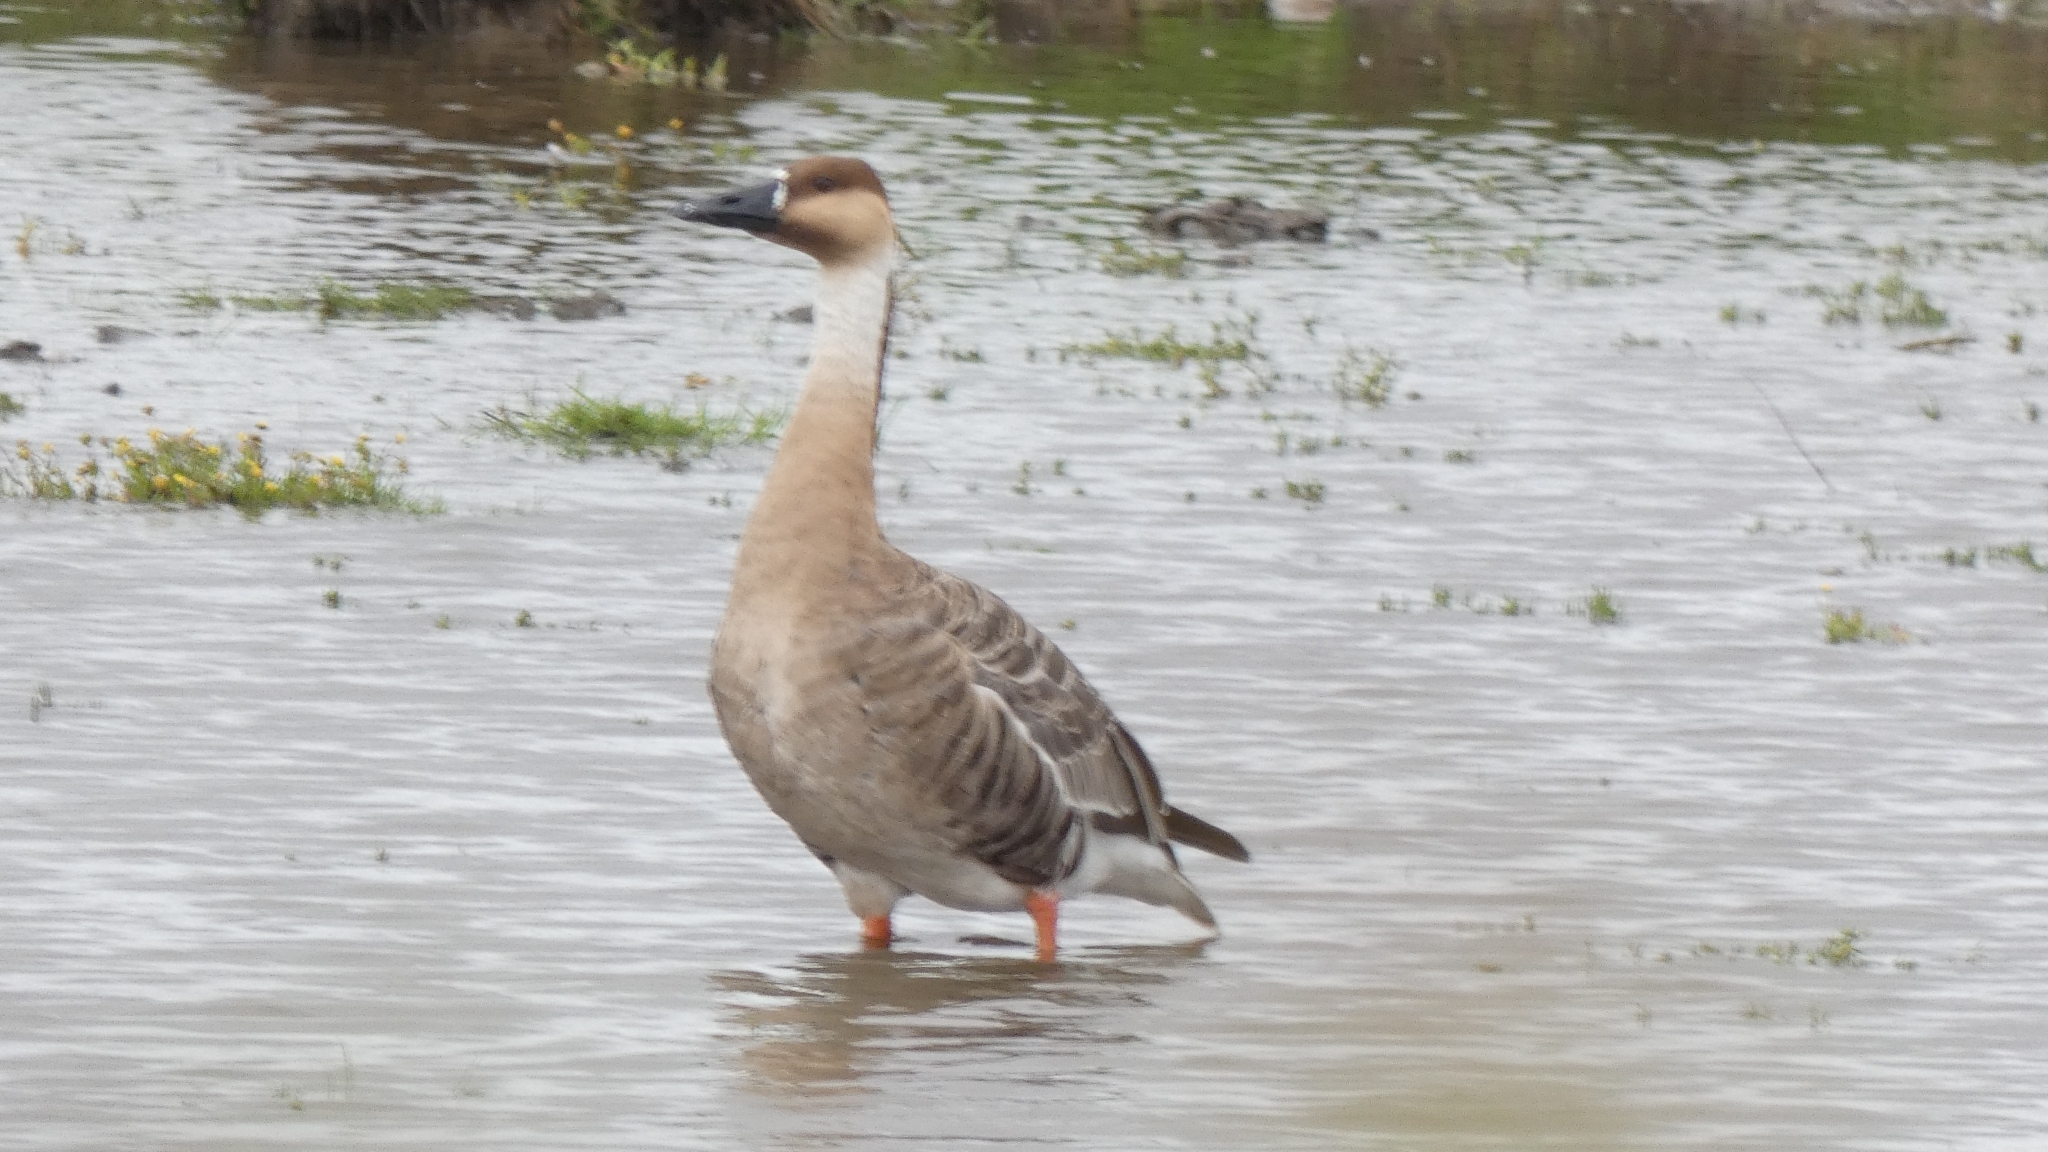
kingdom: Animalia
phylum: Chordata
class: Aves
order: Anseriformes
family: Anatidae
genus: Anser
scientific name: Anser cygnoides
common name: Swan goose
